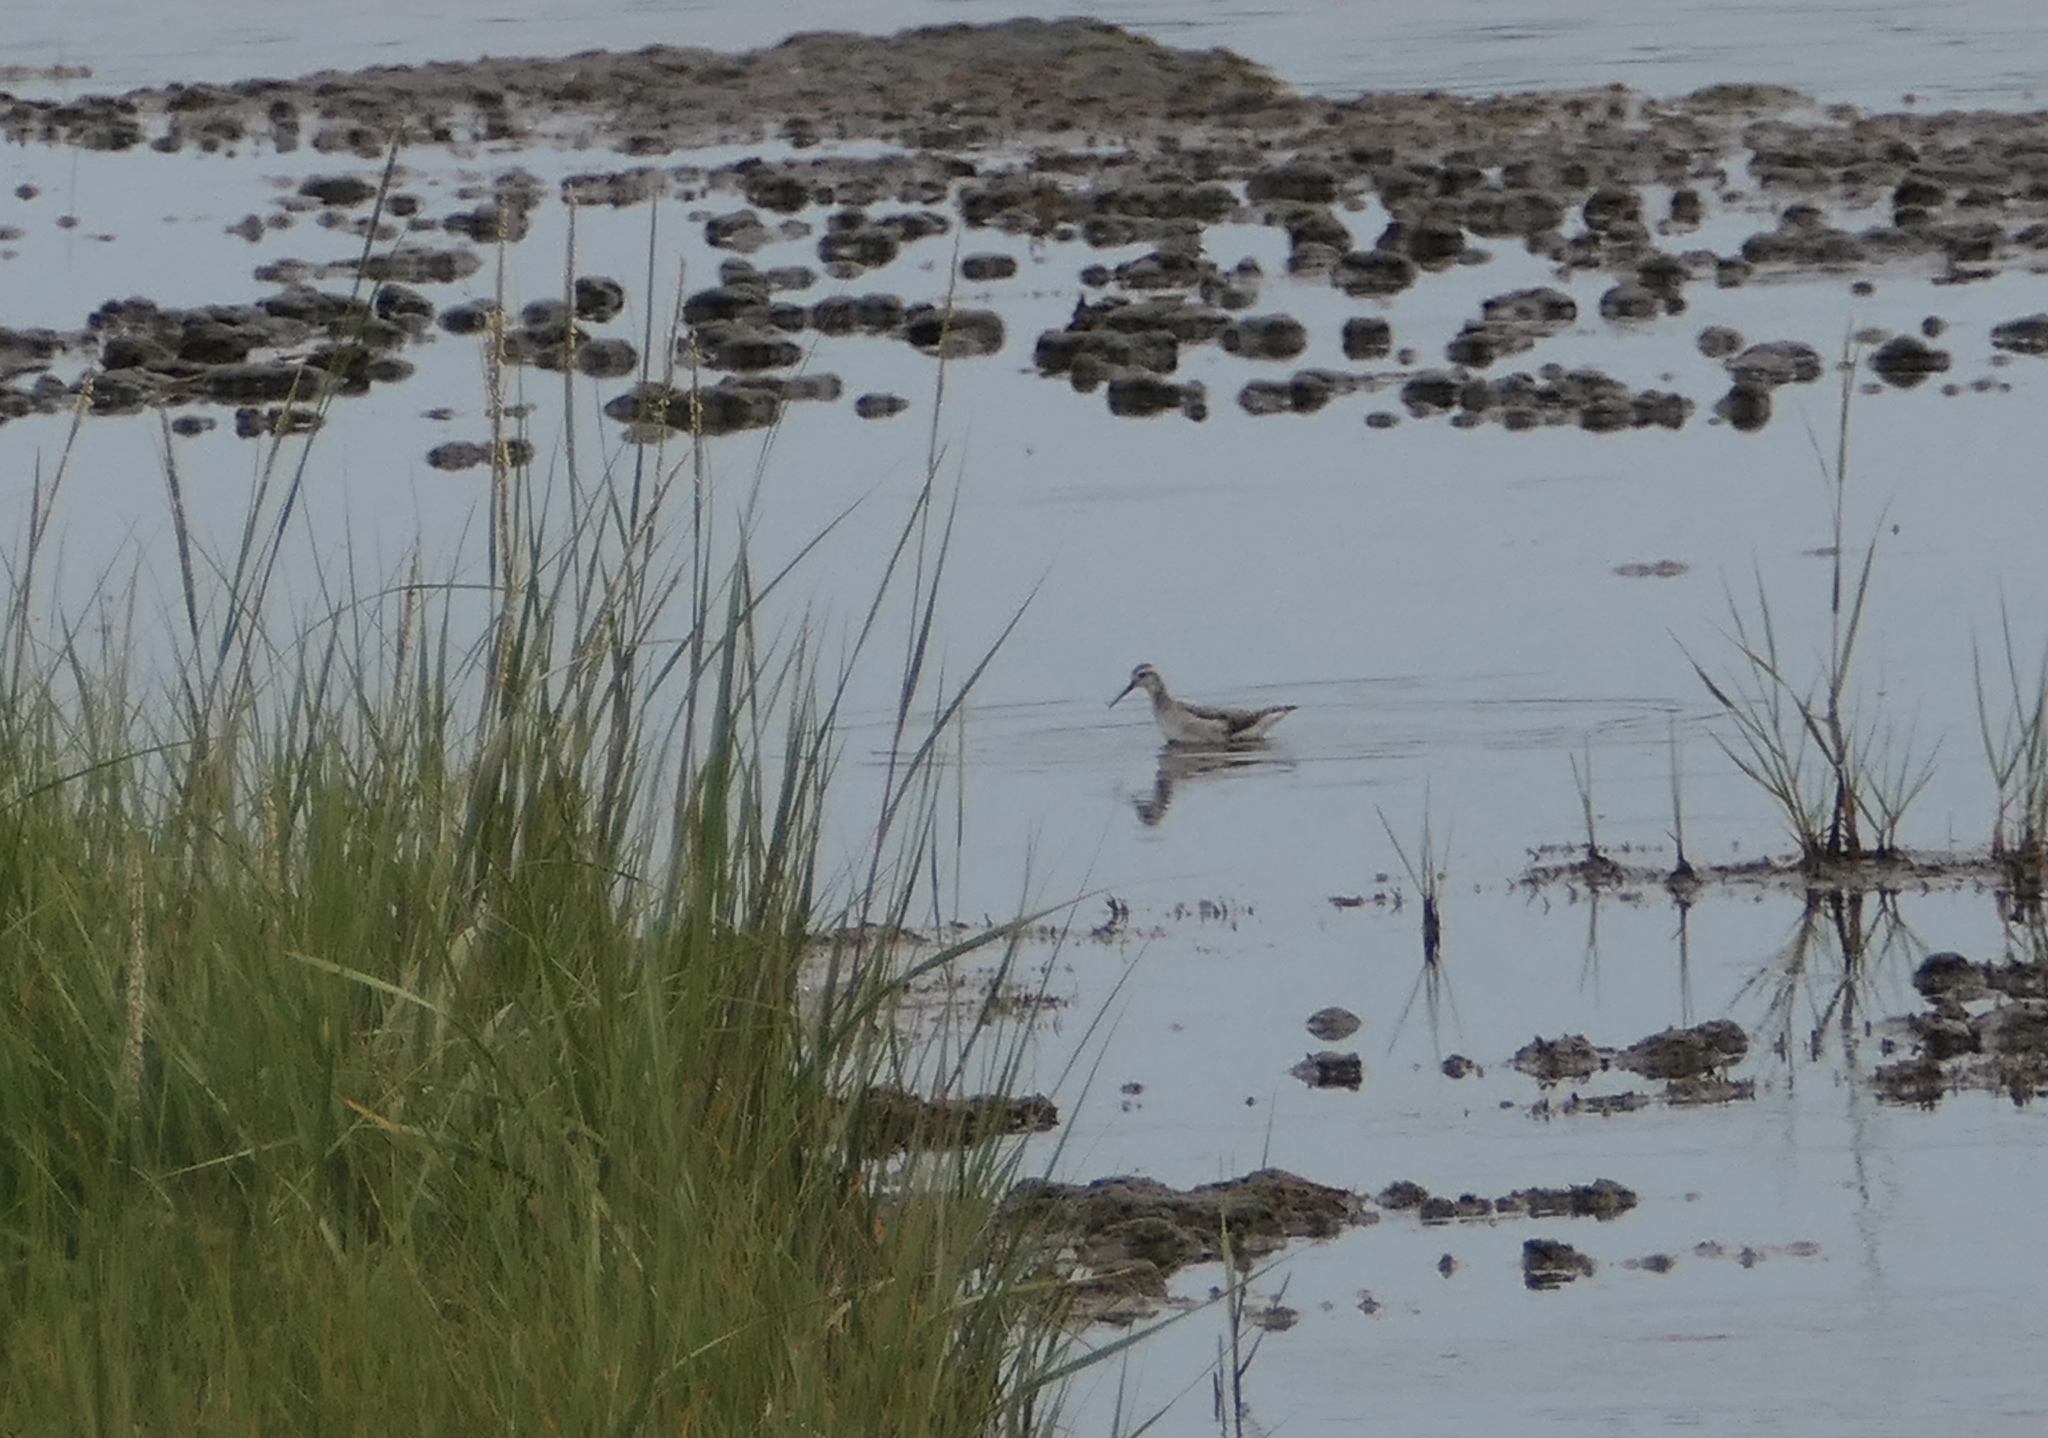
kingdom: Animalia
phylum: Chordata
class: Aves
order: Charadriiformes
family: Scolopacidae
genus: Phalaropus
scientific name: Phalaropus tricolor
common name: Wilson's phalarope
